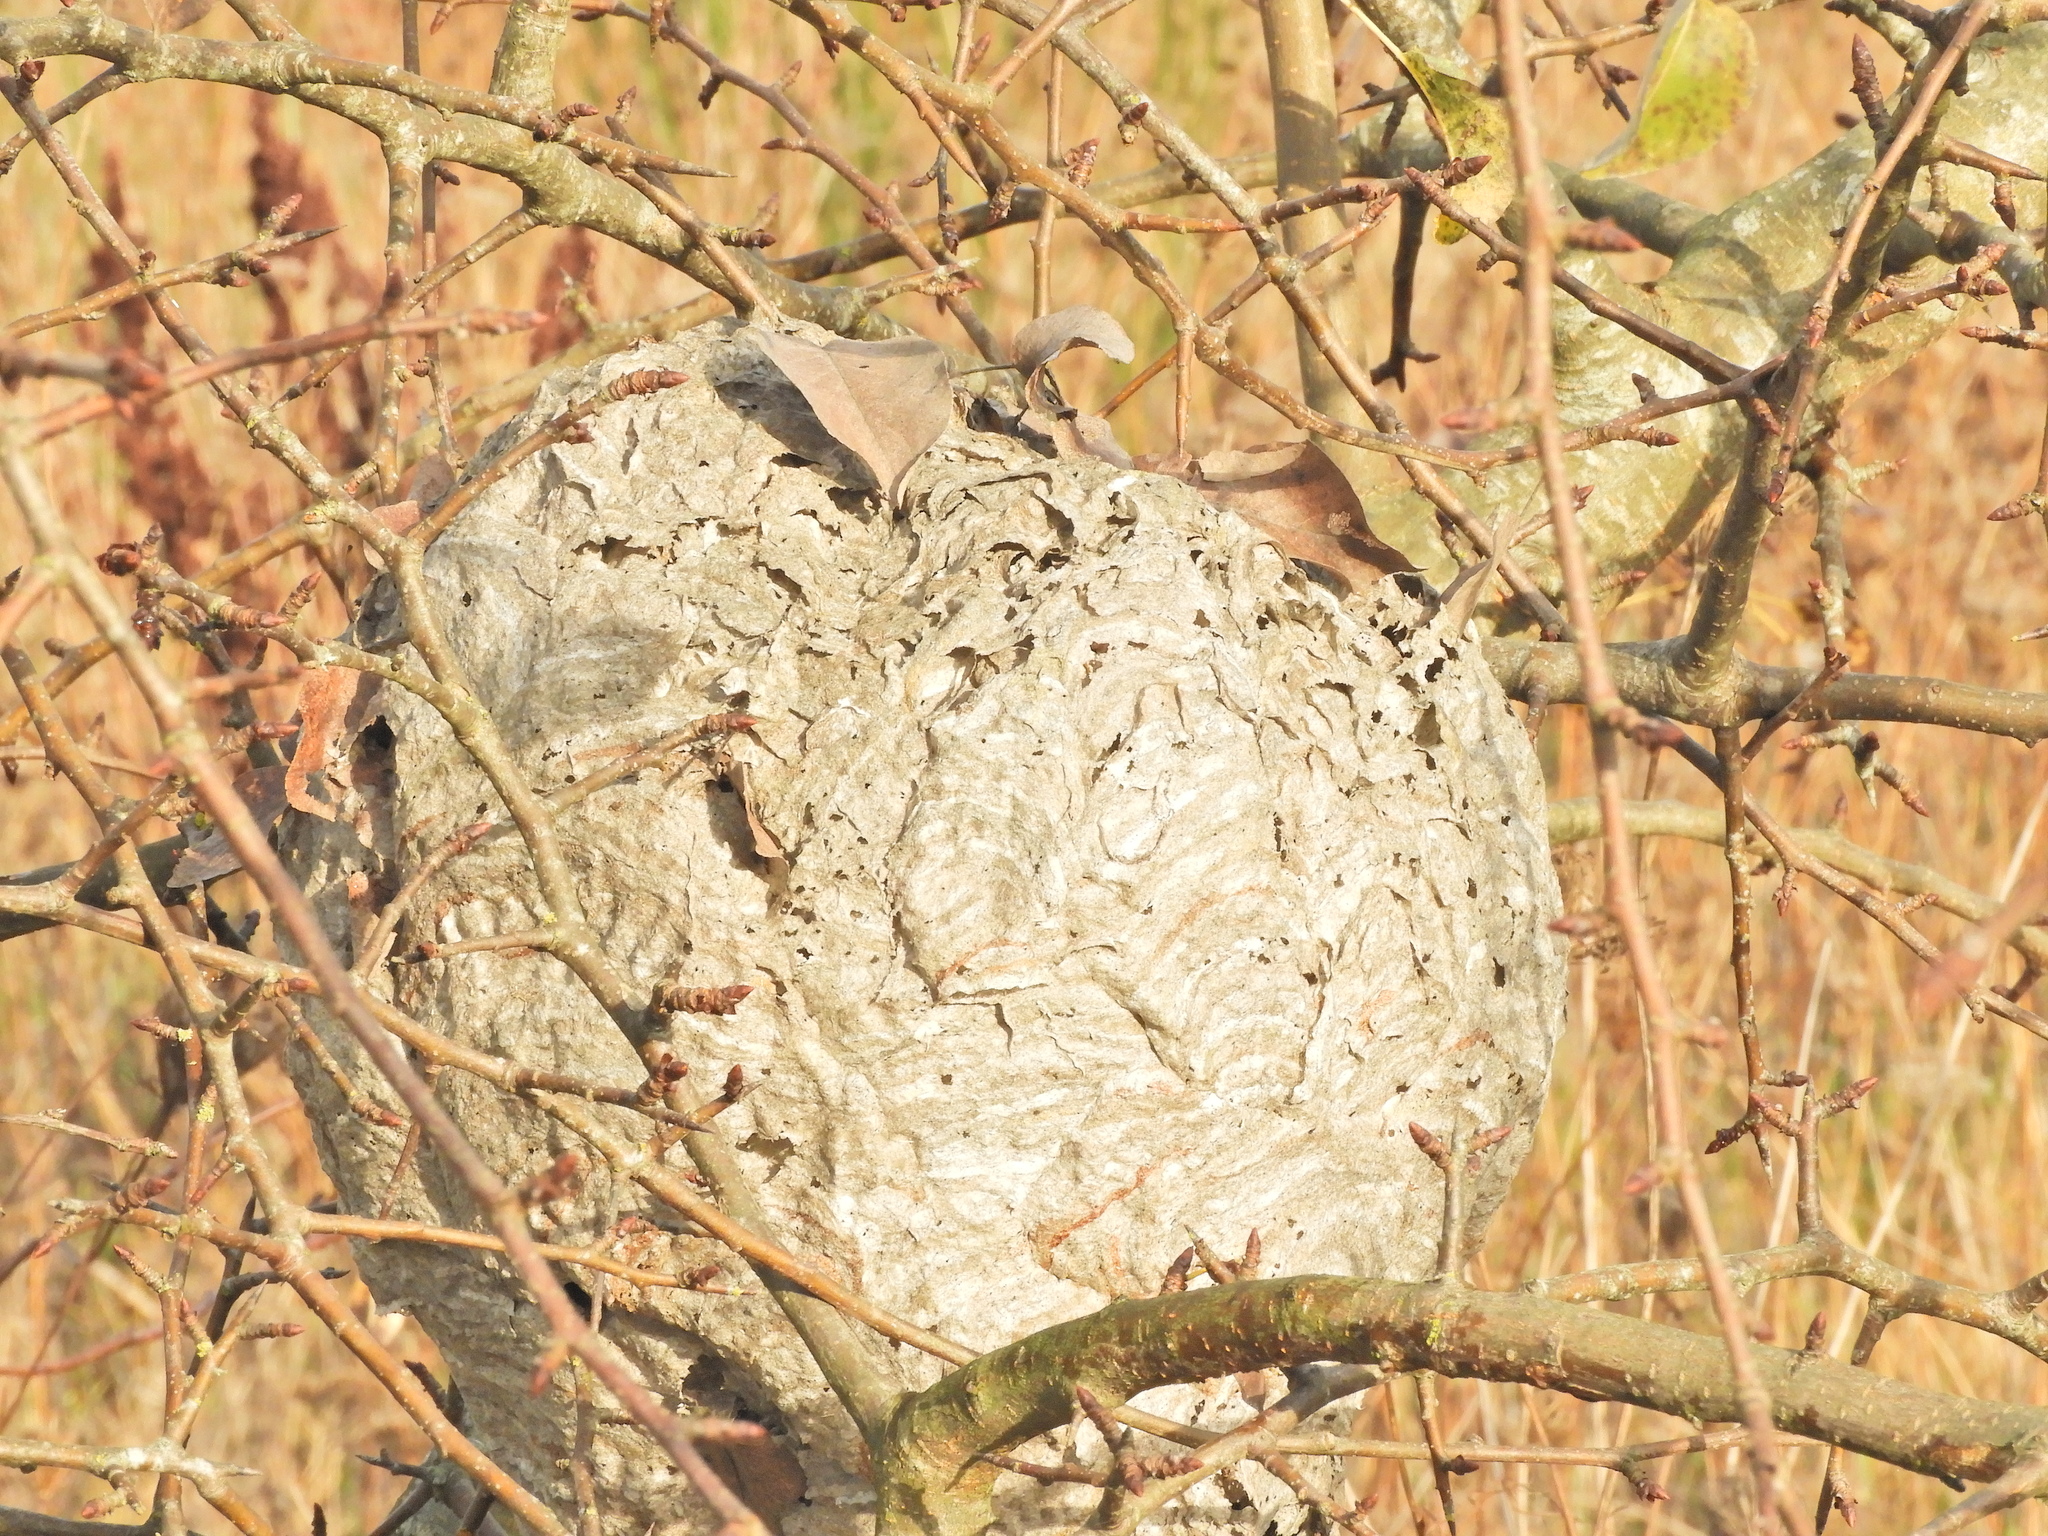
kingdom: Animalia
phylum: Arthropoda
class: Insecta
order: Hymenoptera
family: Vespidae
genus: Dolichovespula
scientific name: Dolichovespula
